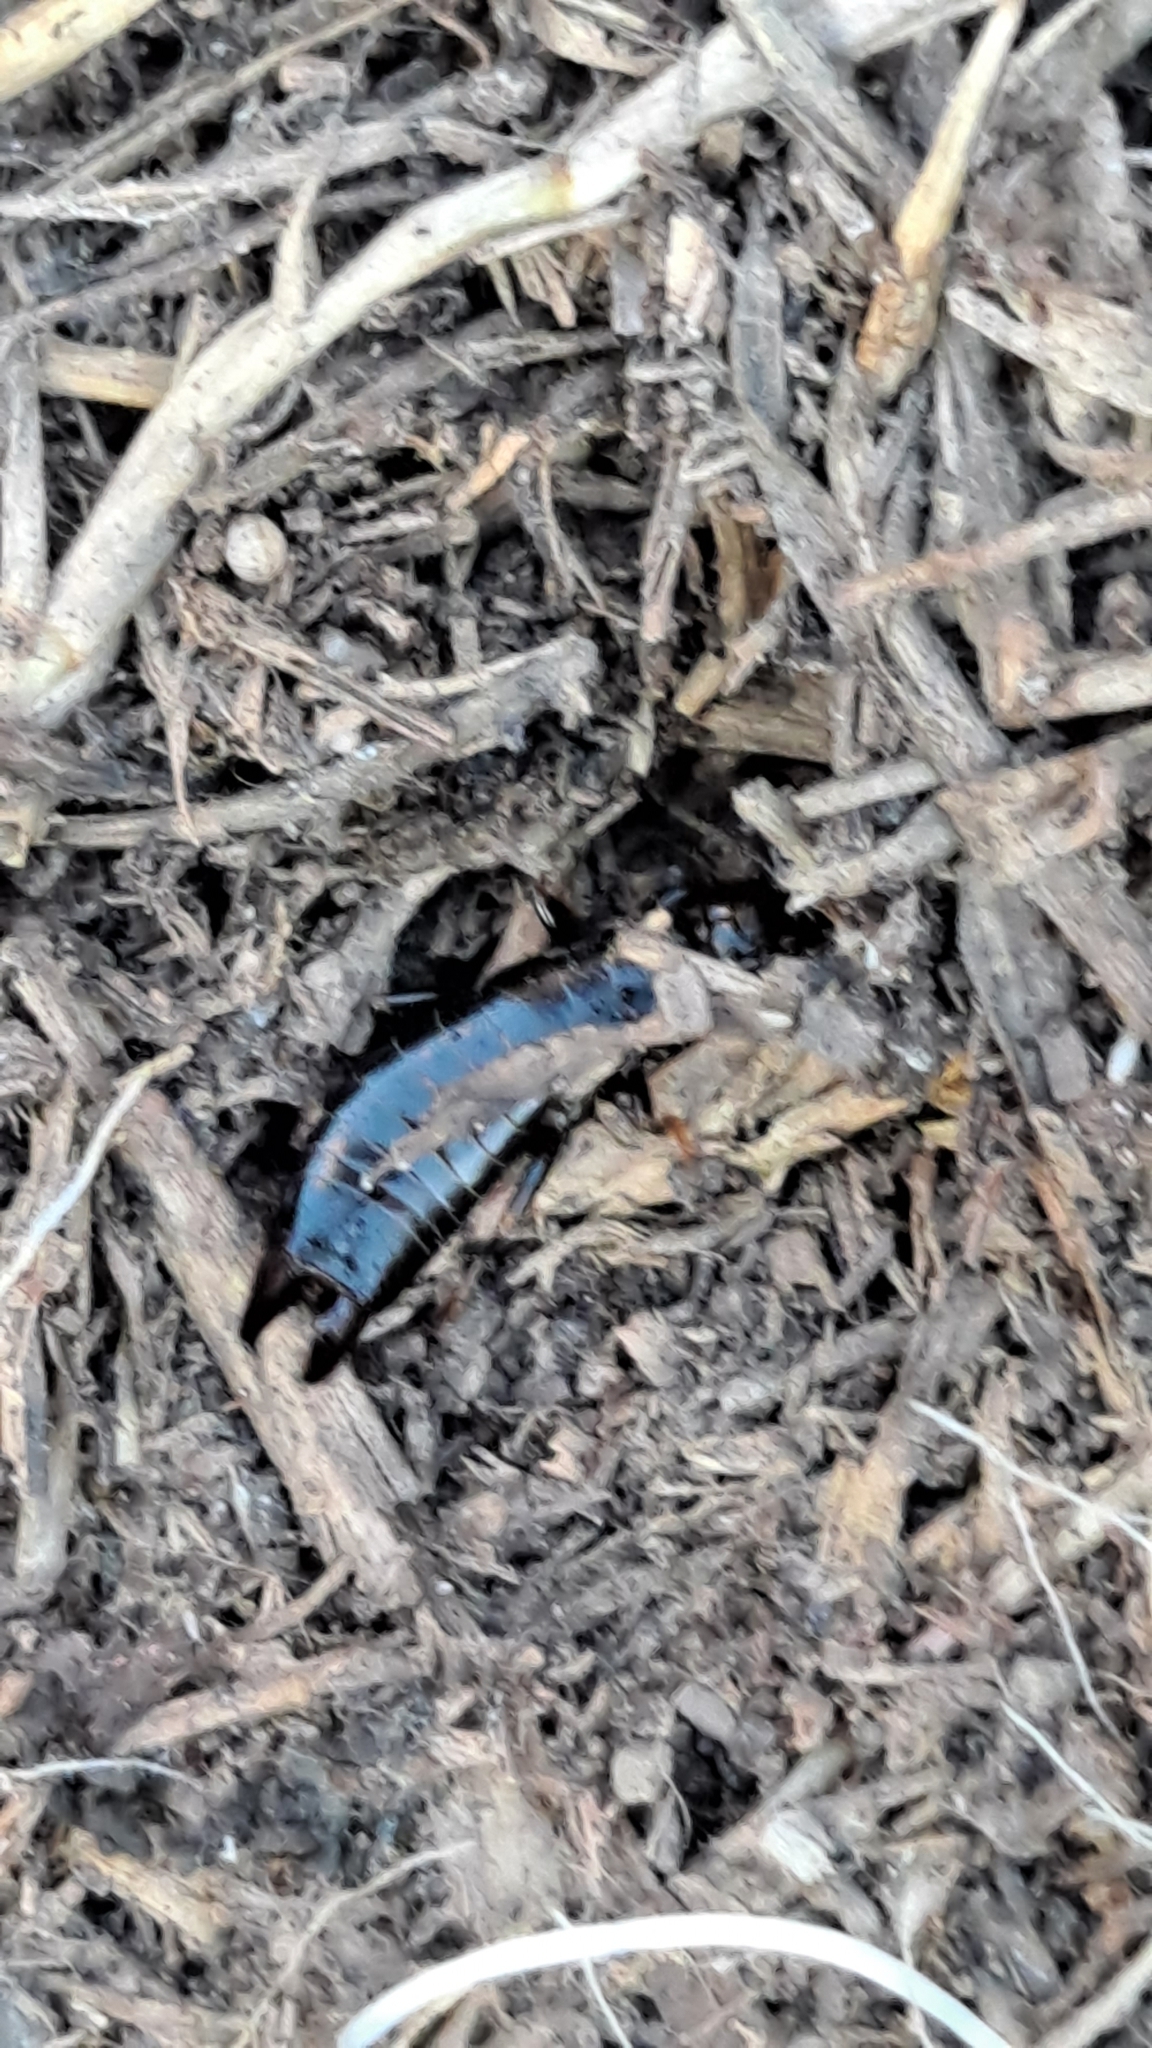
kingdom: Animalia
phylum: Arthropoda
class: Insecta
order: Dermaptera
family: Anisolabididae
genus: Euborellia
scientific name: Euborellia moesta
